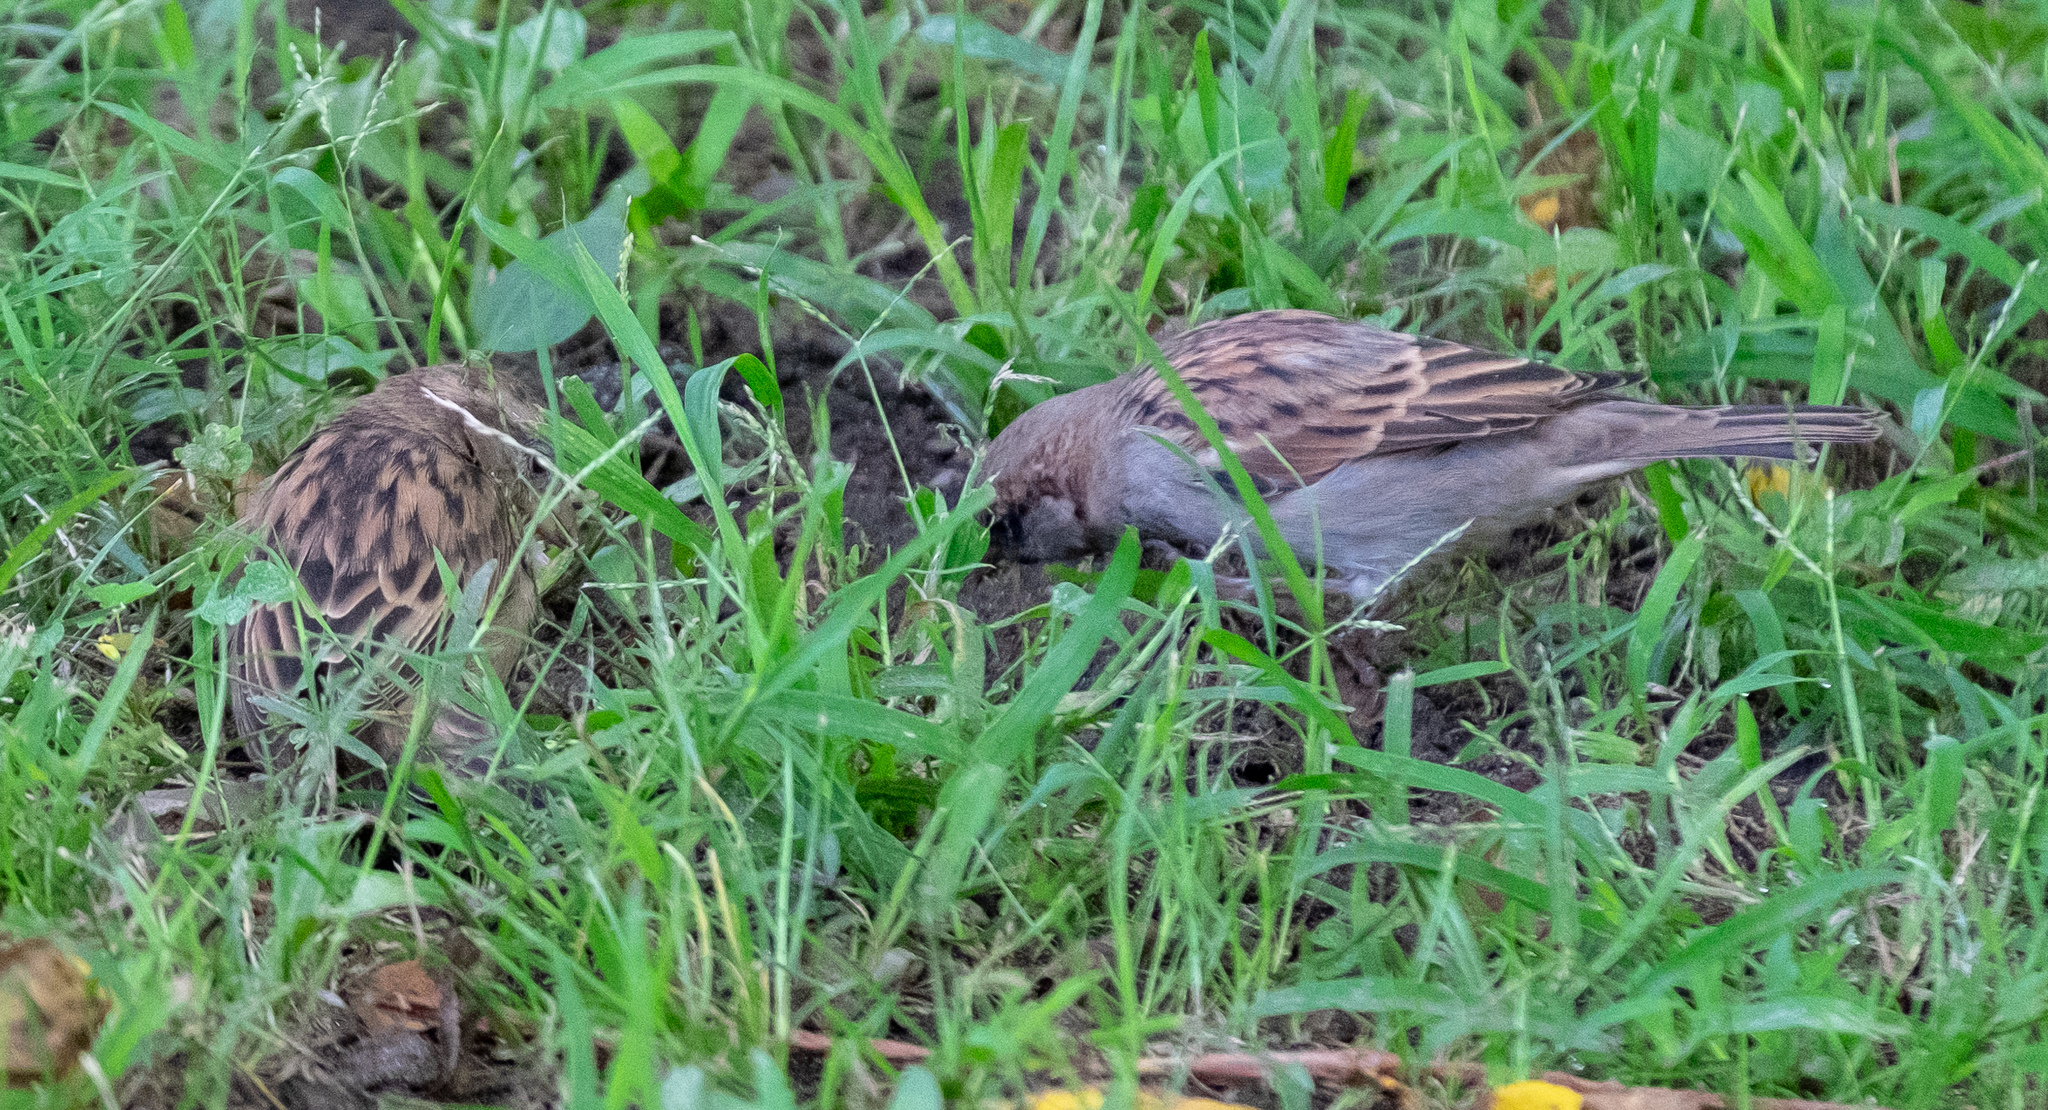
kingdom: Animalia
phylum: Chordata
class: Aves
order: Passeriformes
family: Passeridae
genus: Passer
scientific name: Passer domesticus
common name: House sparrow
